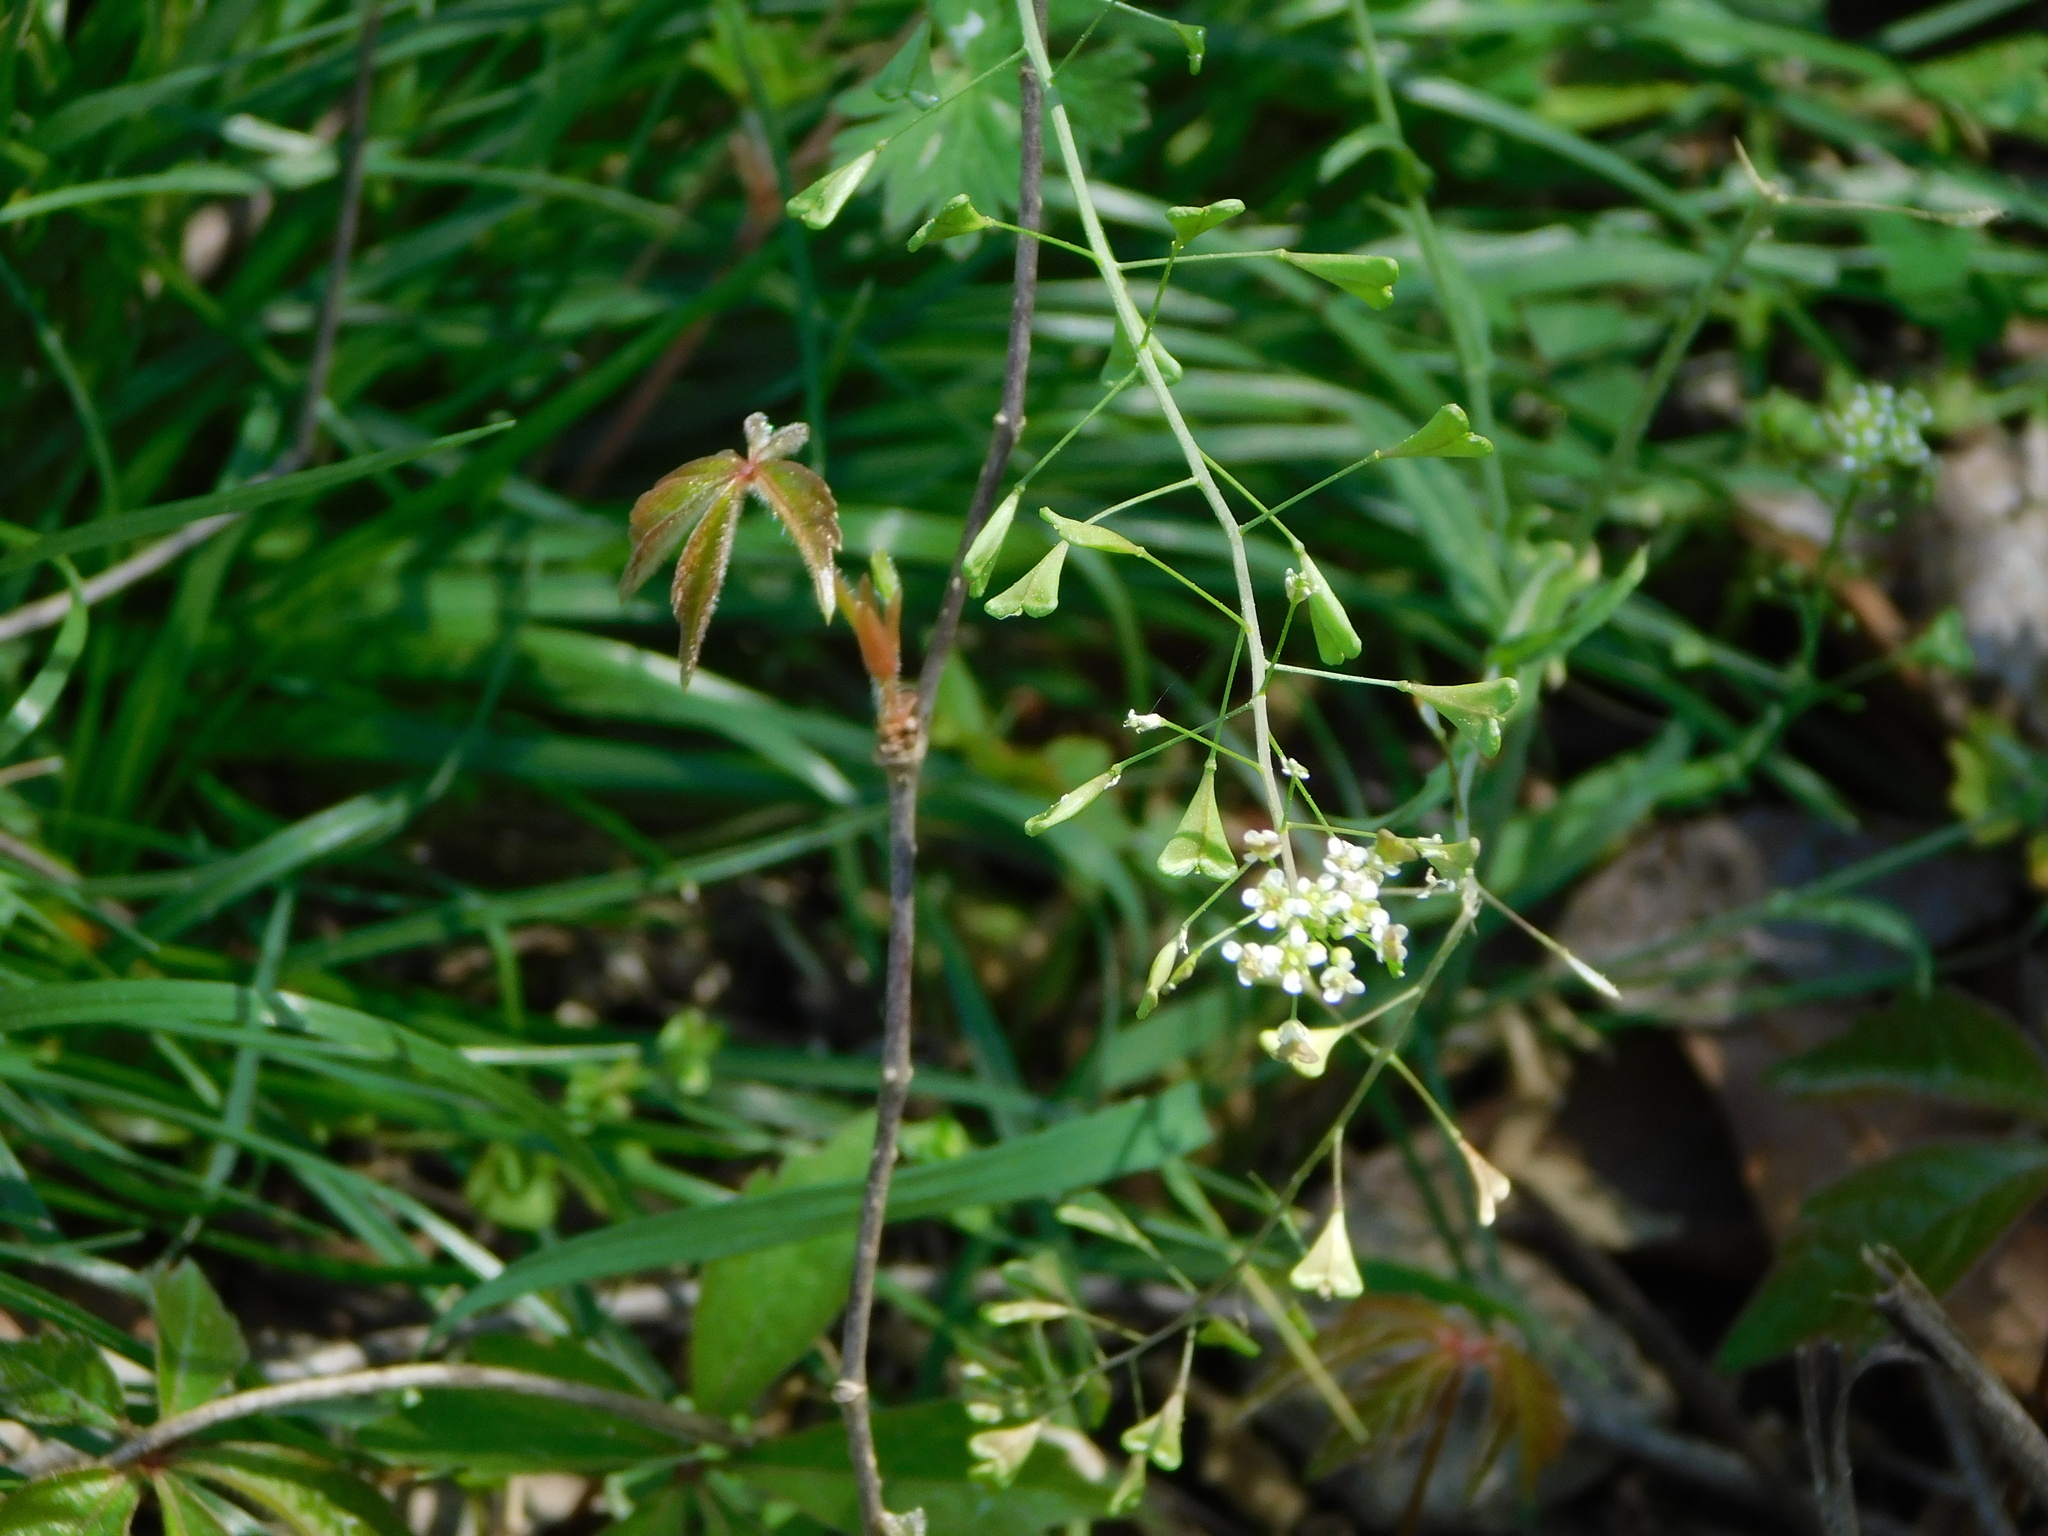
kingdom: Plantae
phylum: Tracheophyta
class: Magnoliopsida
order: Brassicales
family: Brassicaceae
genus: Capsella
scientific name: Capsella bursa-pastoris
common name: Shepherd's purse
